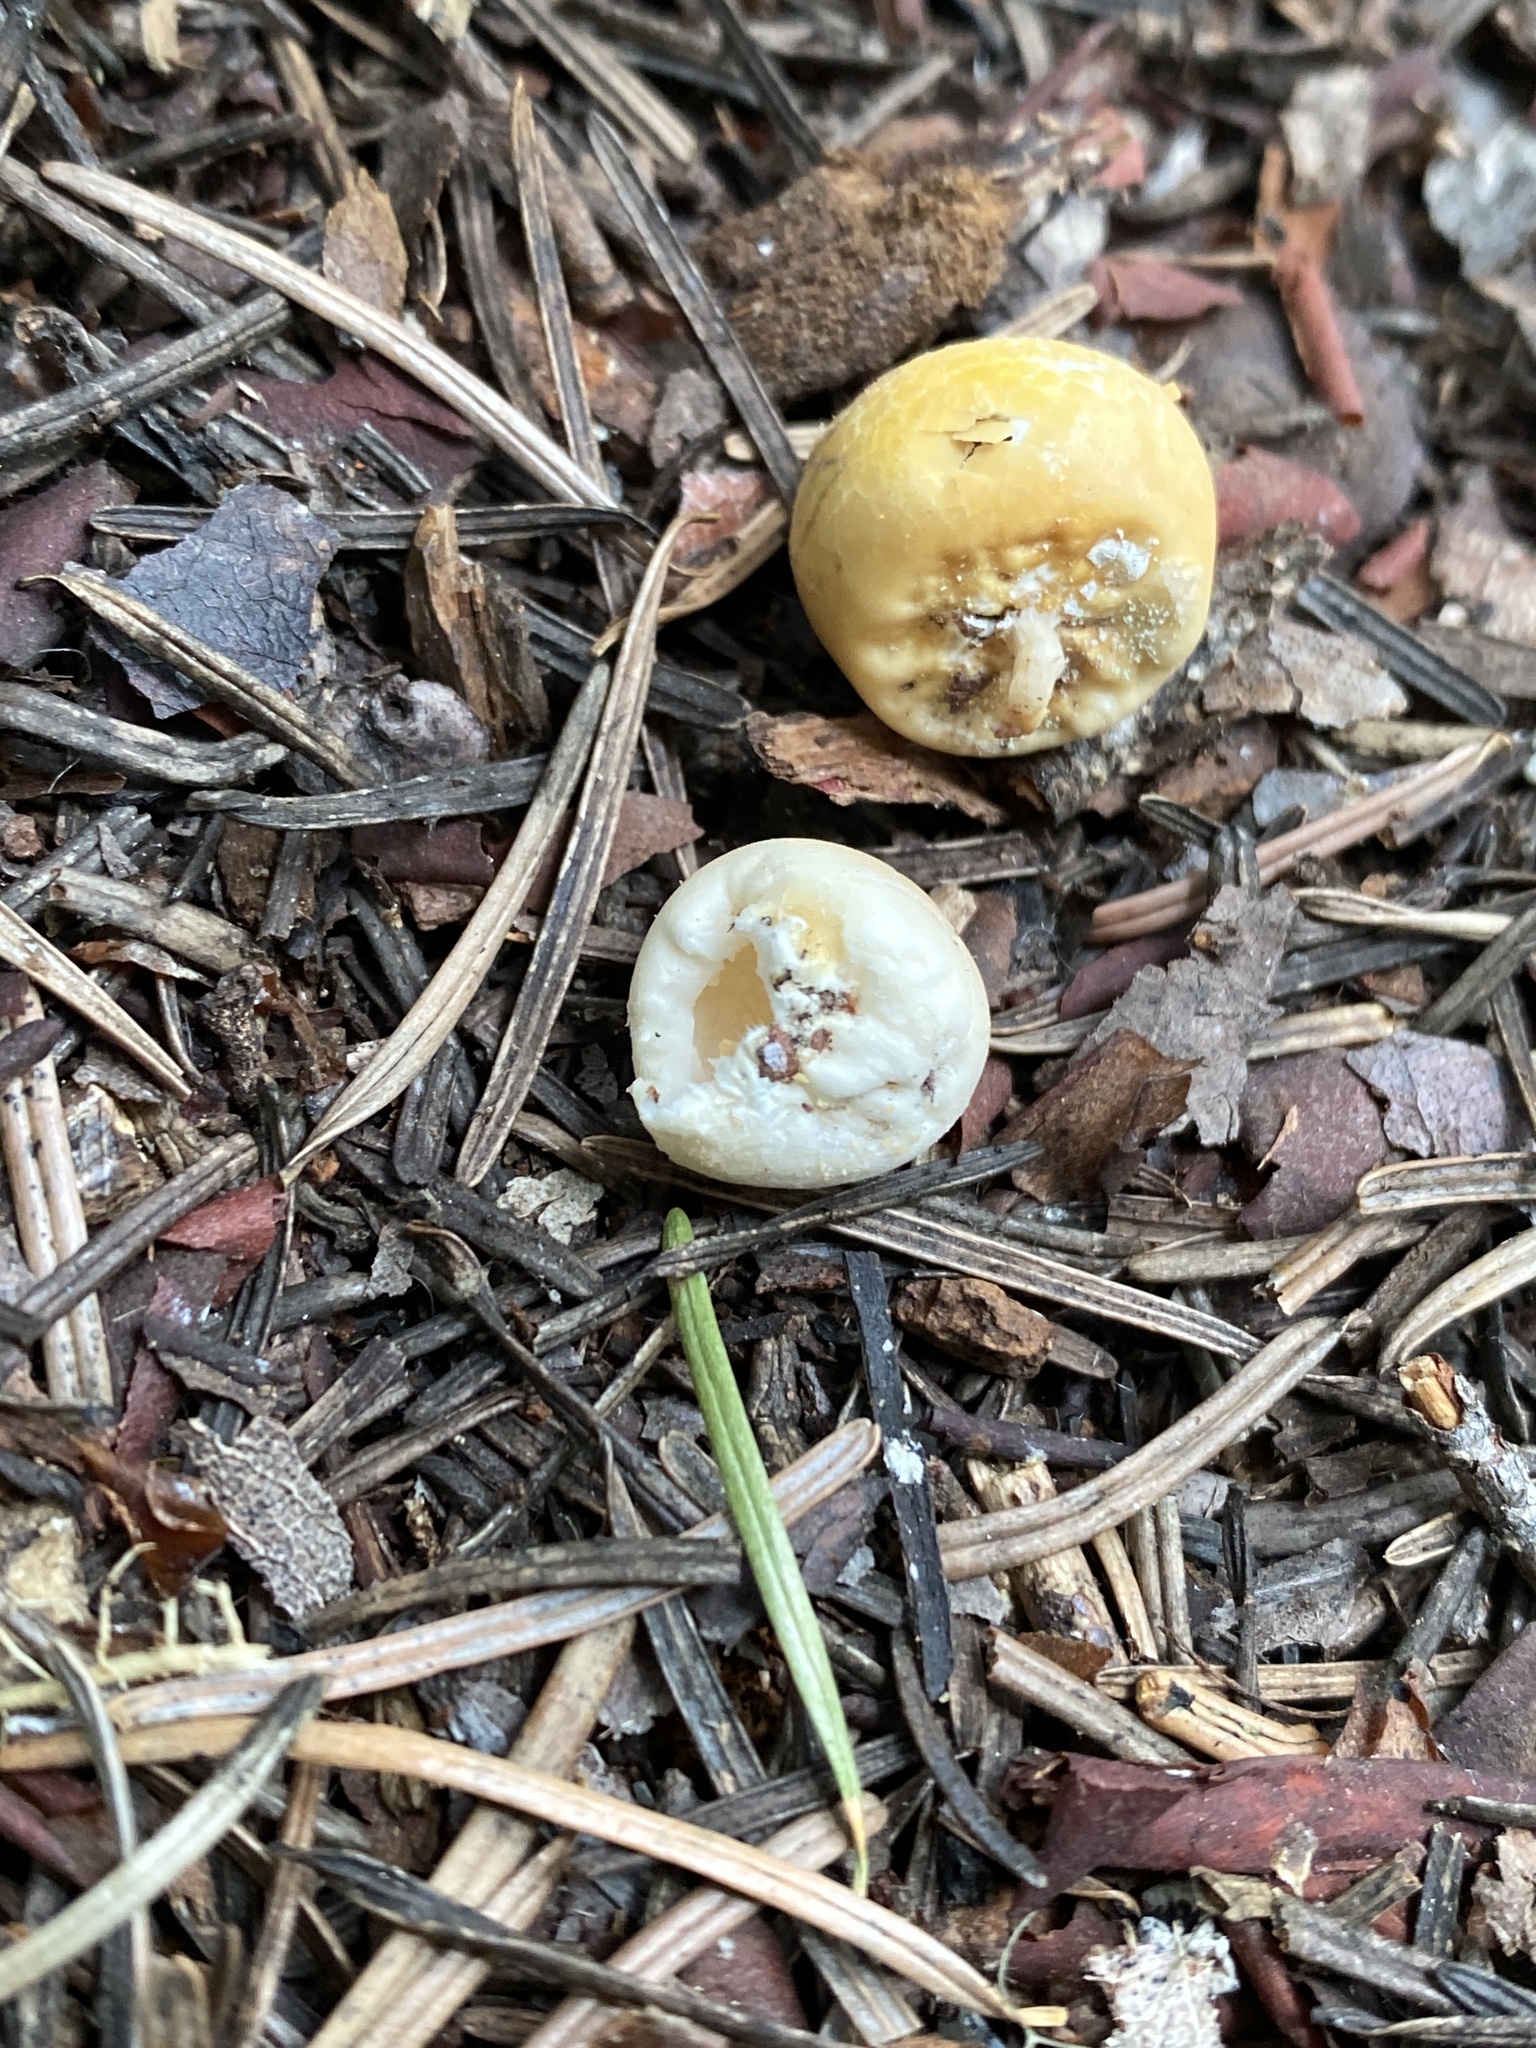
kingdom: Fungi
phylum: Basidiomycota
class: Agaricomycetes
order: Polyporales
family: Polyporaceae
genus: Cryptoporus
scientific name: Cryptoporus volvatus
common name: Veiled polypore
